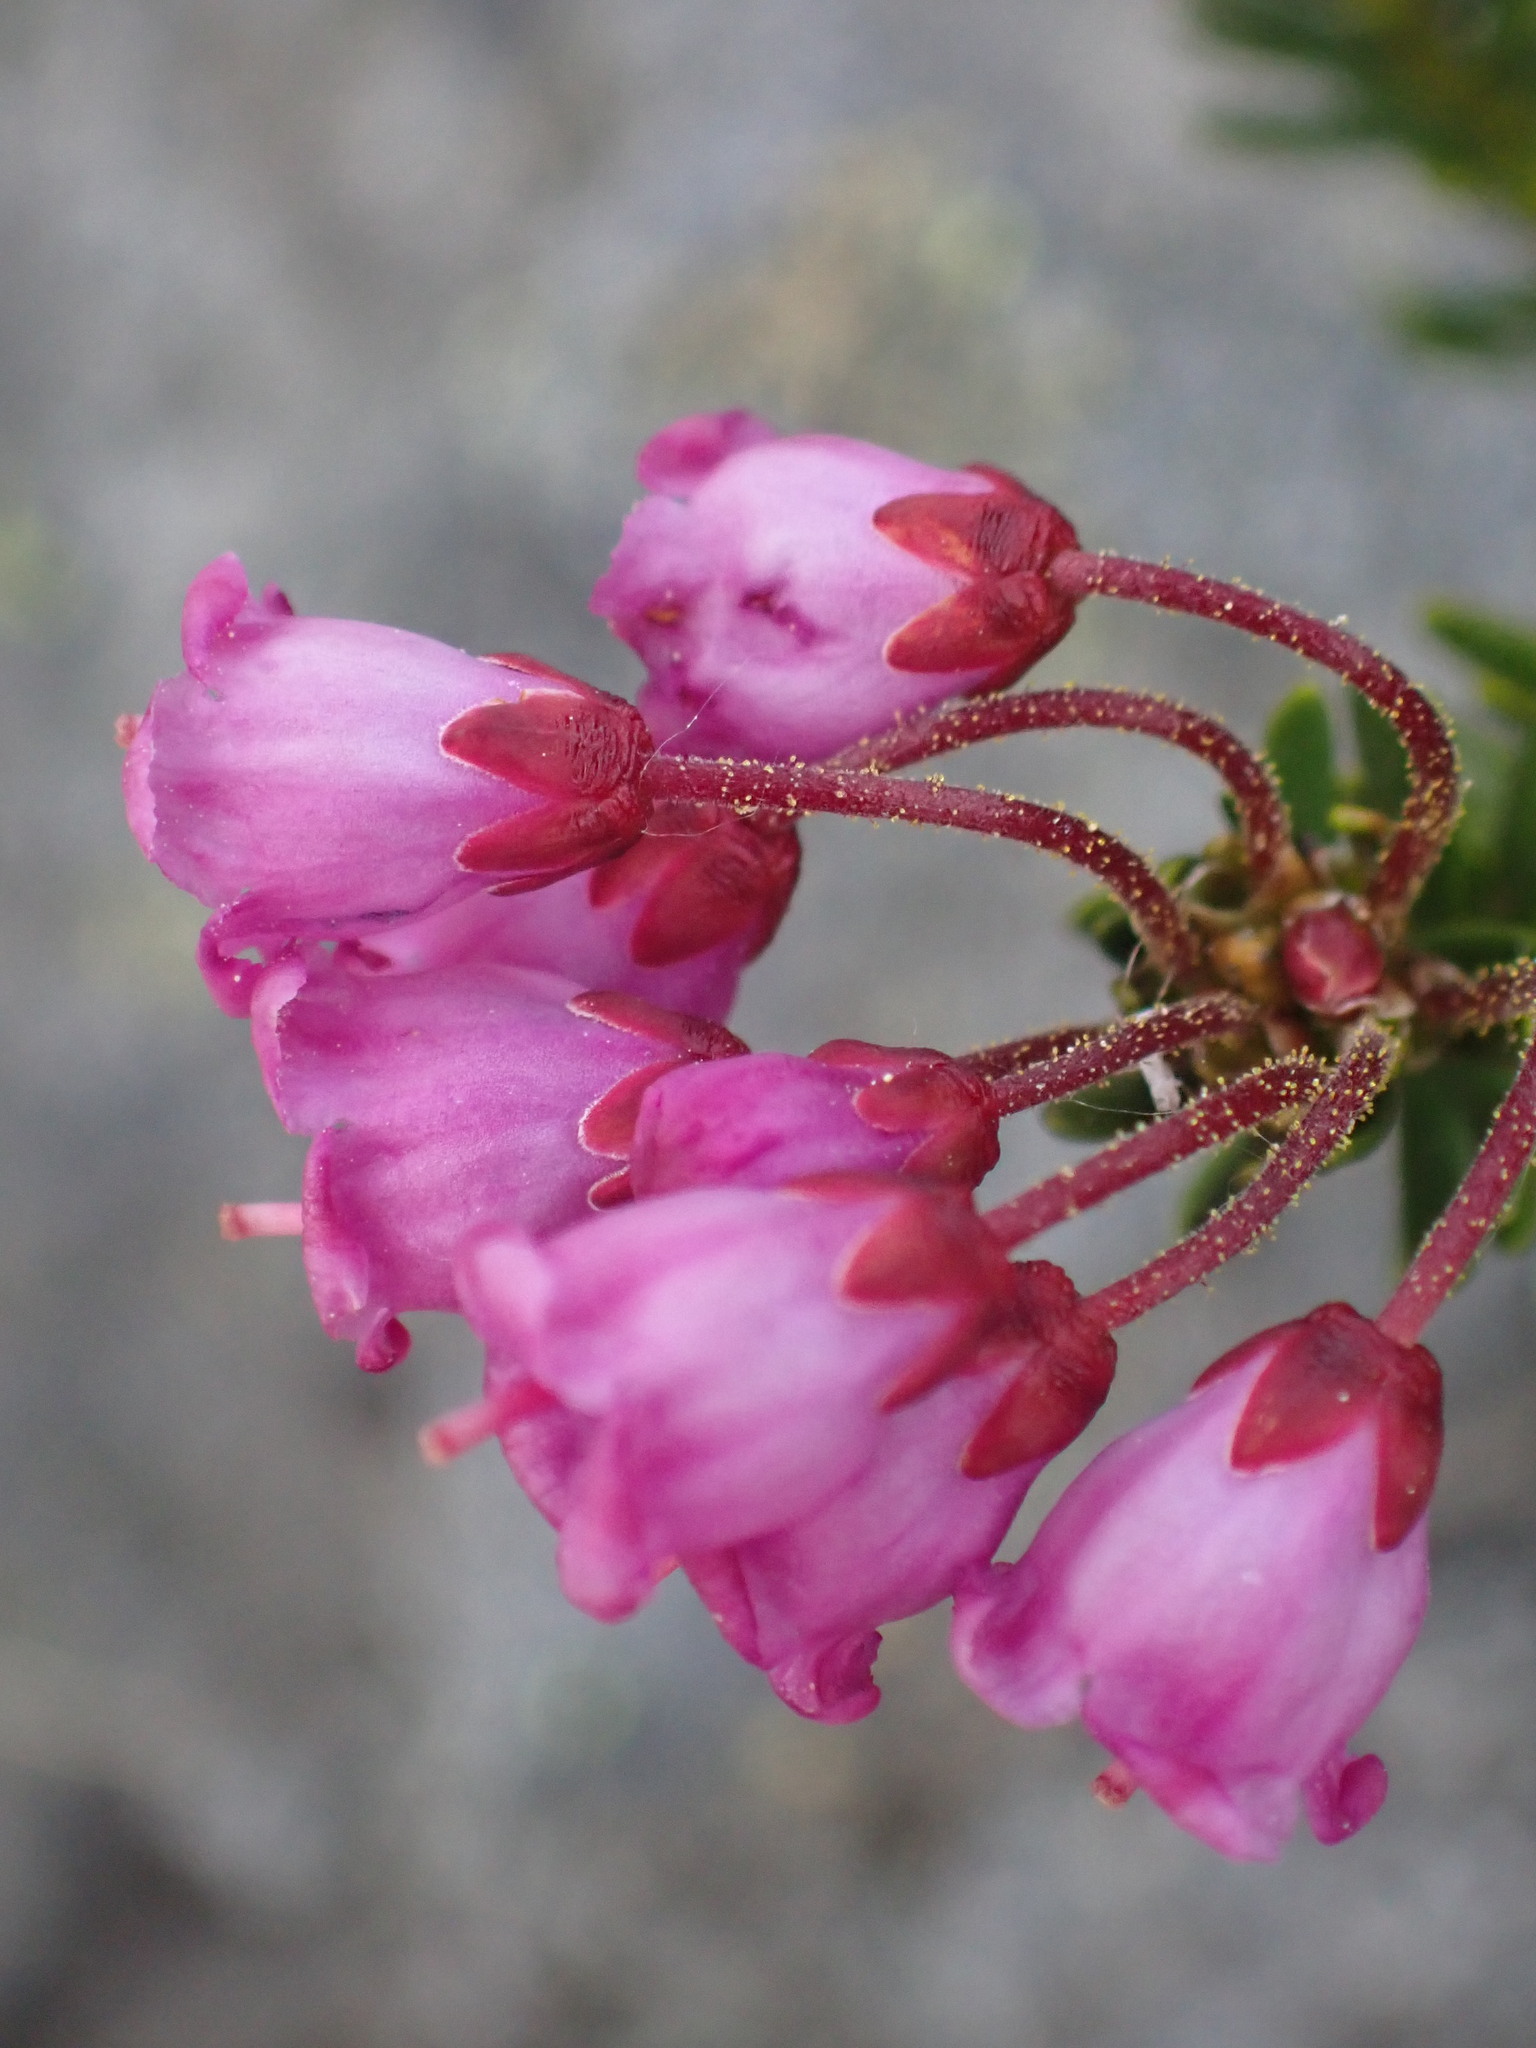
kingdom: Plantae
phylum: Tracheophyta
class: Magnoliopsida
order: Ericales
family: Ericaceae
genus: Phyllodoce
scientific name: Phyllodoce empetriformis
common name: Pink mountain heather
